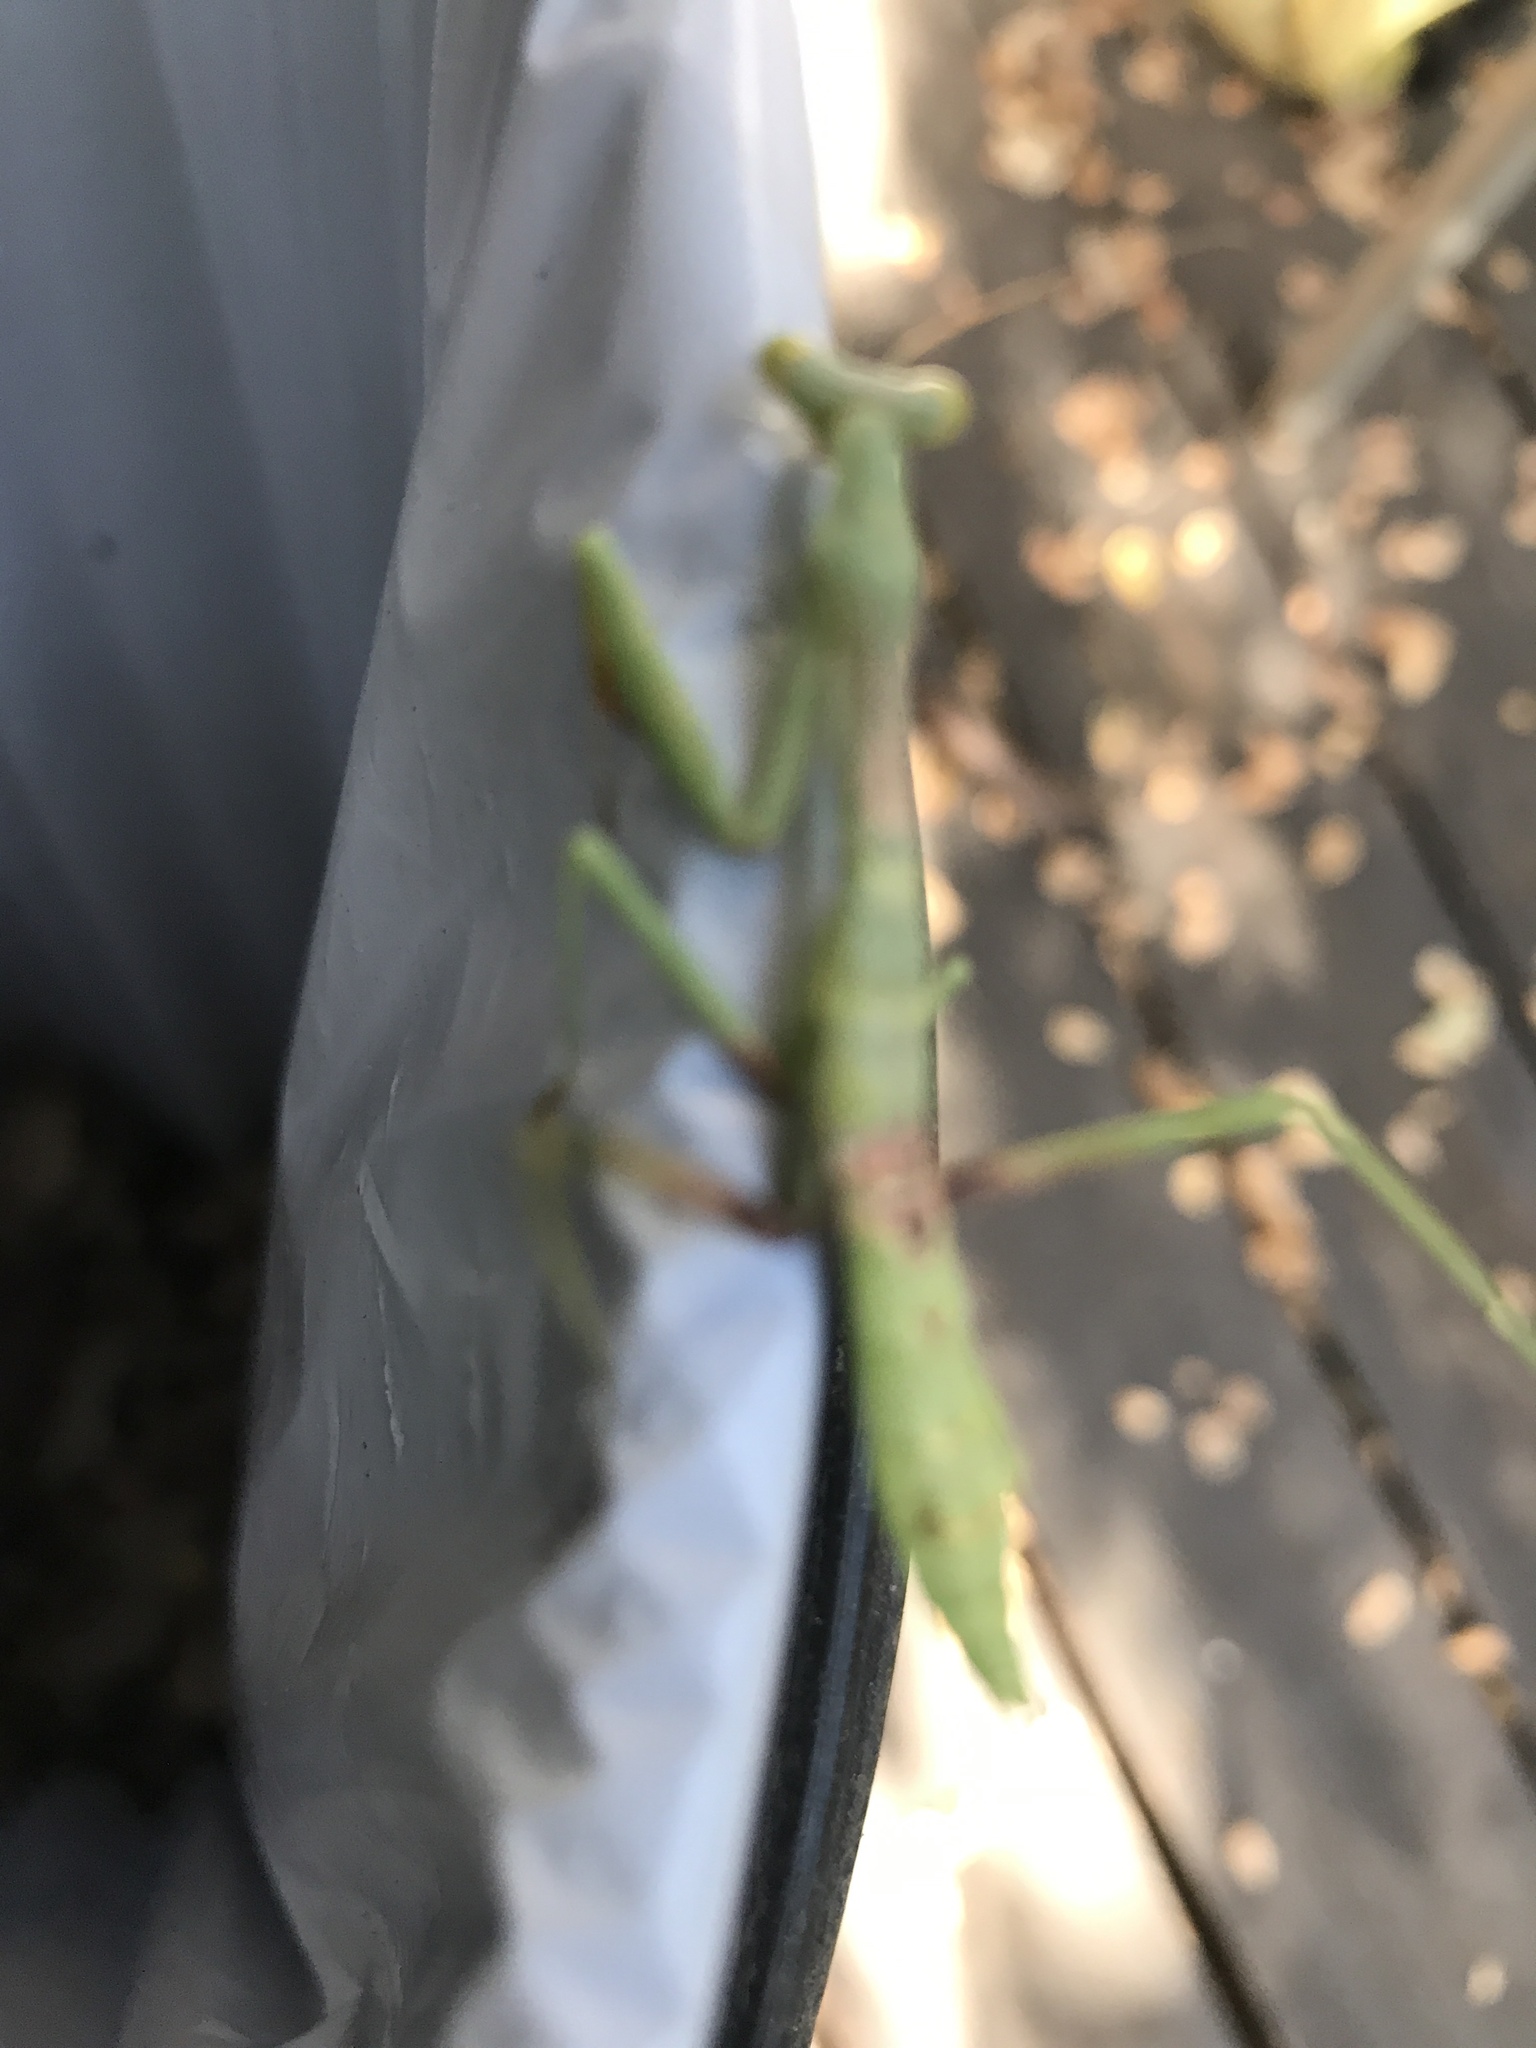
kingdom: Animalia
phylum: Arthropoda
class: Insecta
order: Mantodea
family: Mantidae
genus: Stagmomantis
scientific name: Stagmomantis carolina
